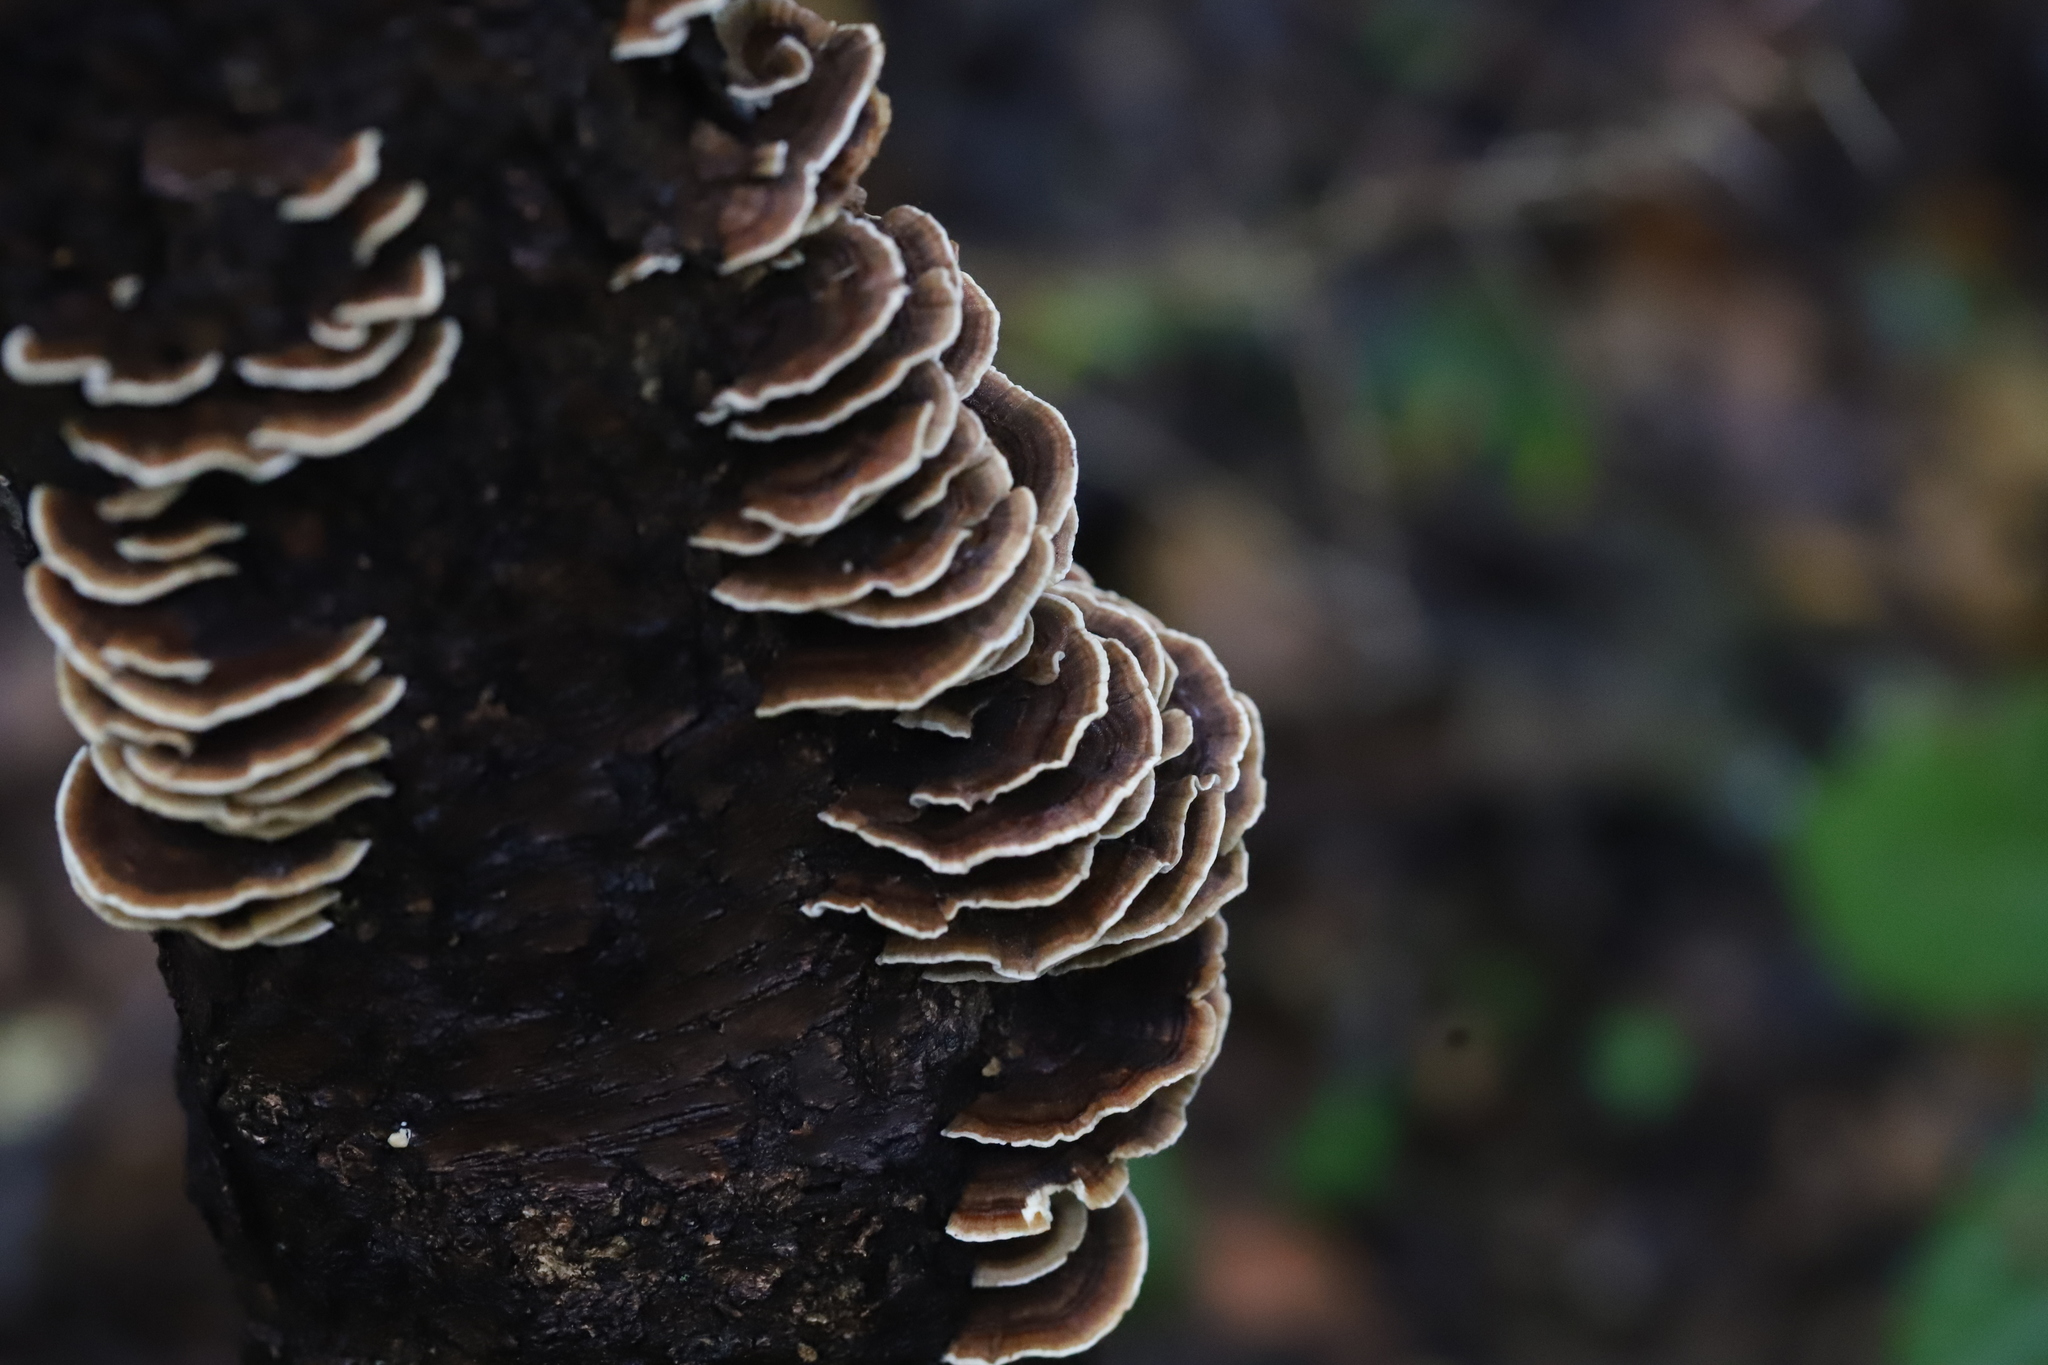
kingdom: Fungi
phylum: Basidiomycota
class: Agaricomycetes
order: Polyporales
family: Polyporaceae
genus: Trametes
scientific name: Trametes versicolor
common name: Turkeytail
